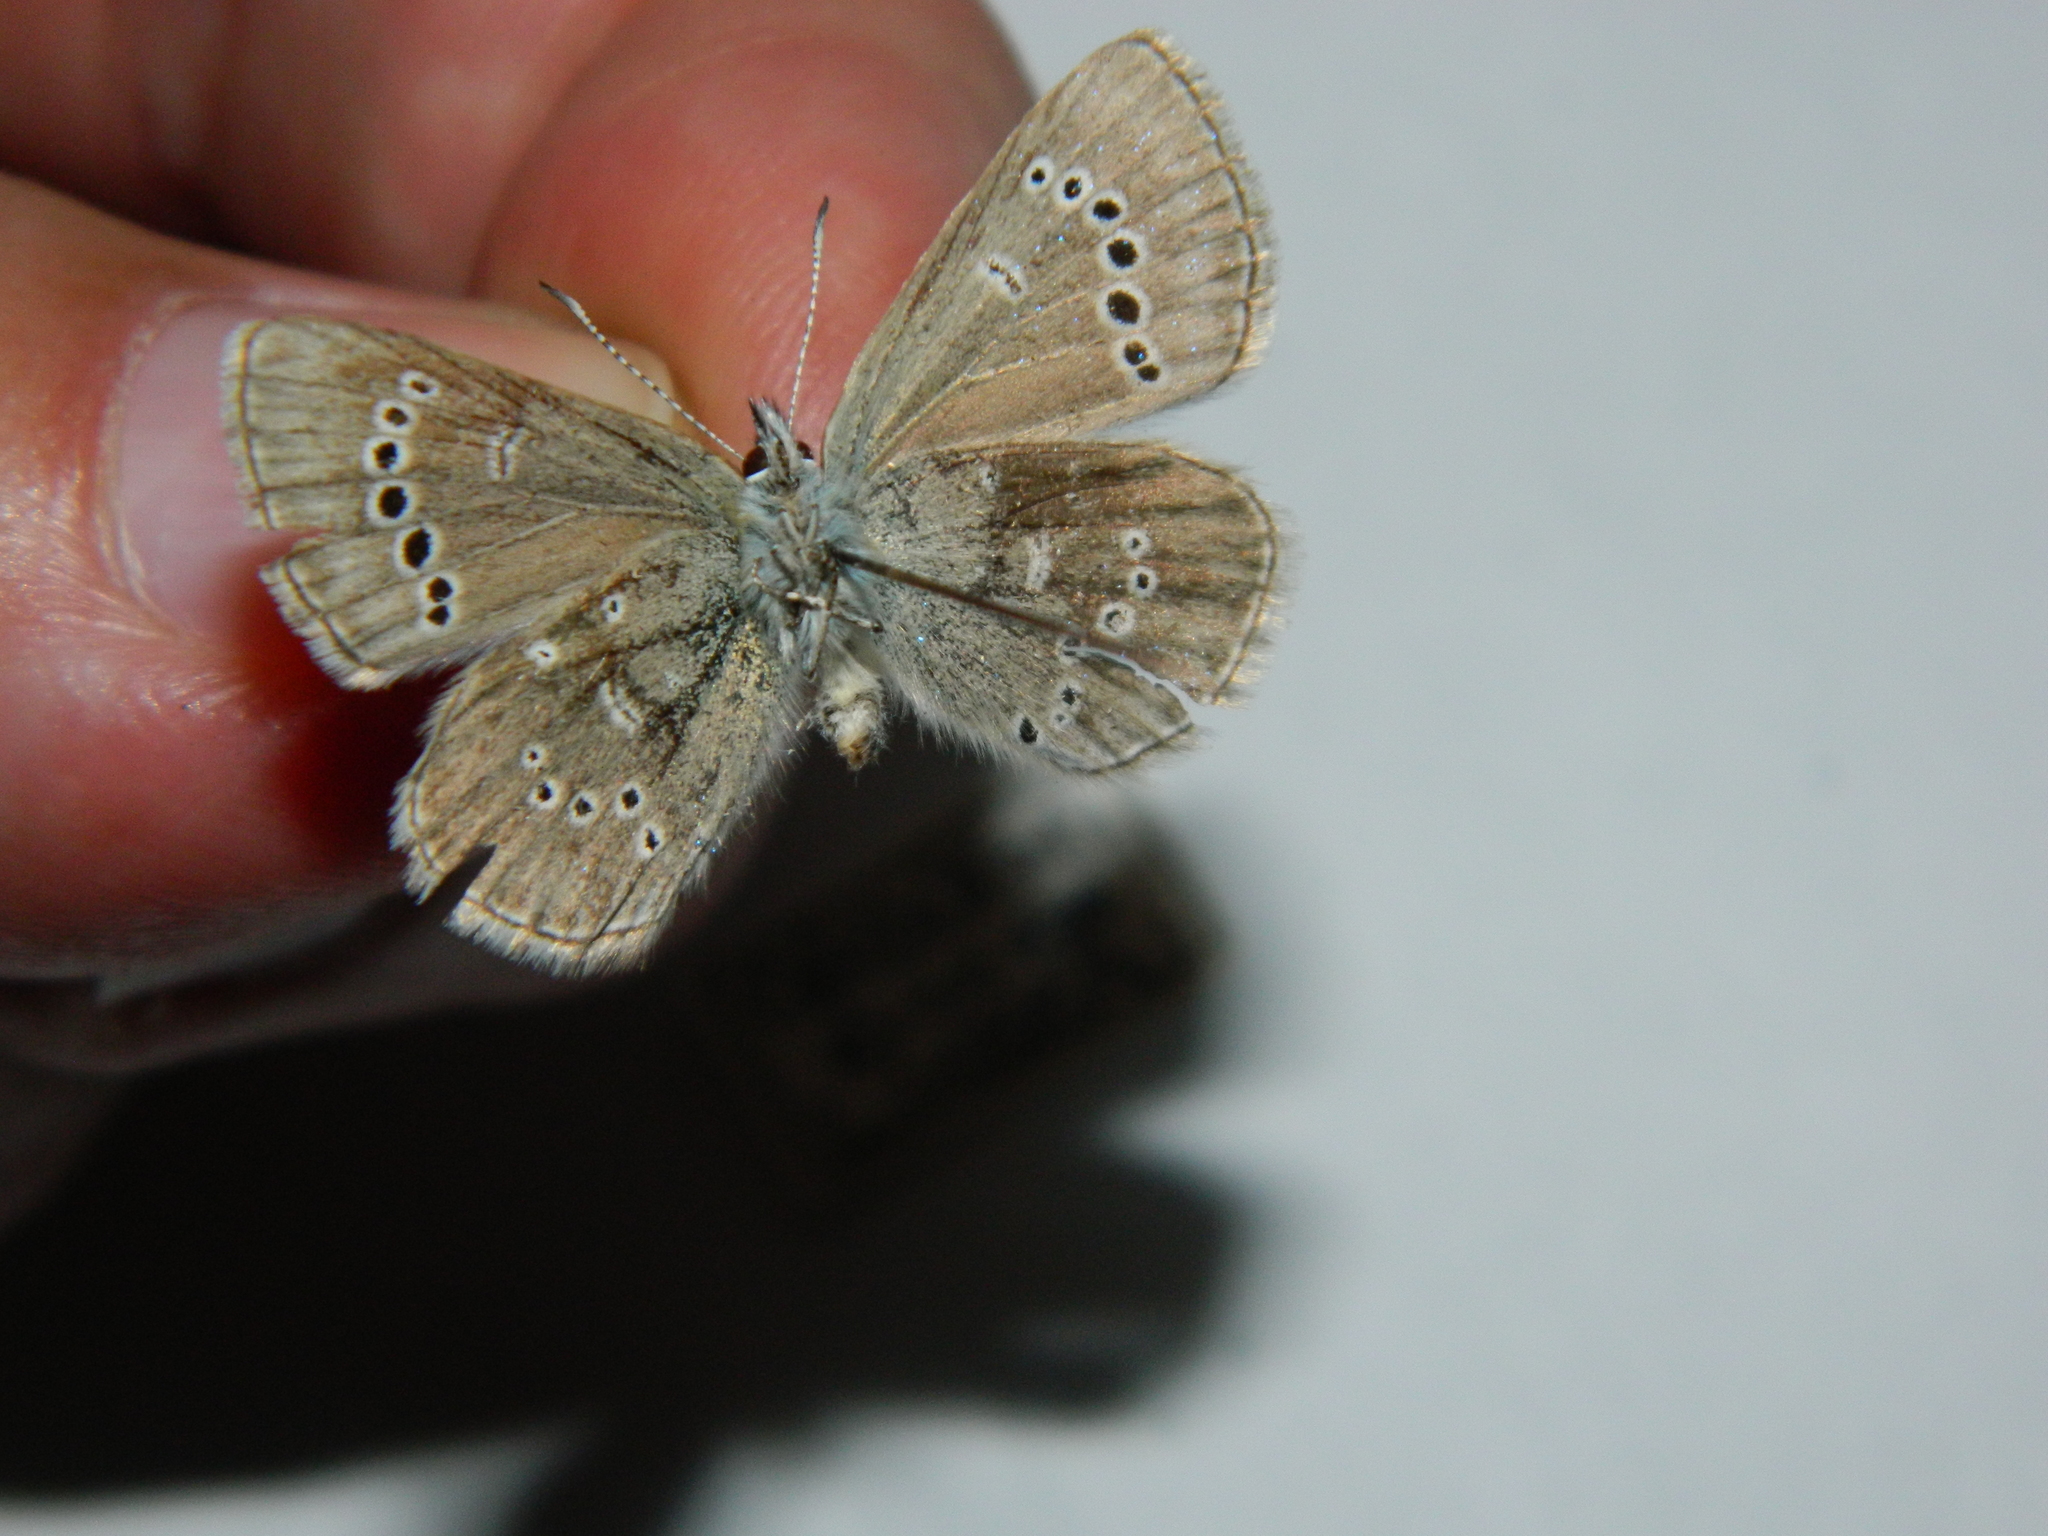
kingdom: Animalia
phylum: Arthropoda
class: Insecta
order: Lepidoptera
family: Lycaenidae
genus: Glaucopsyche
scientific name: Glaucopsyche lygdamus
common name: Silvery blue
